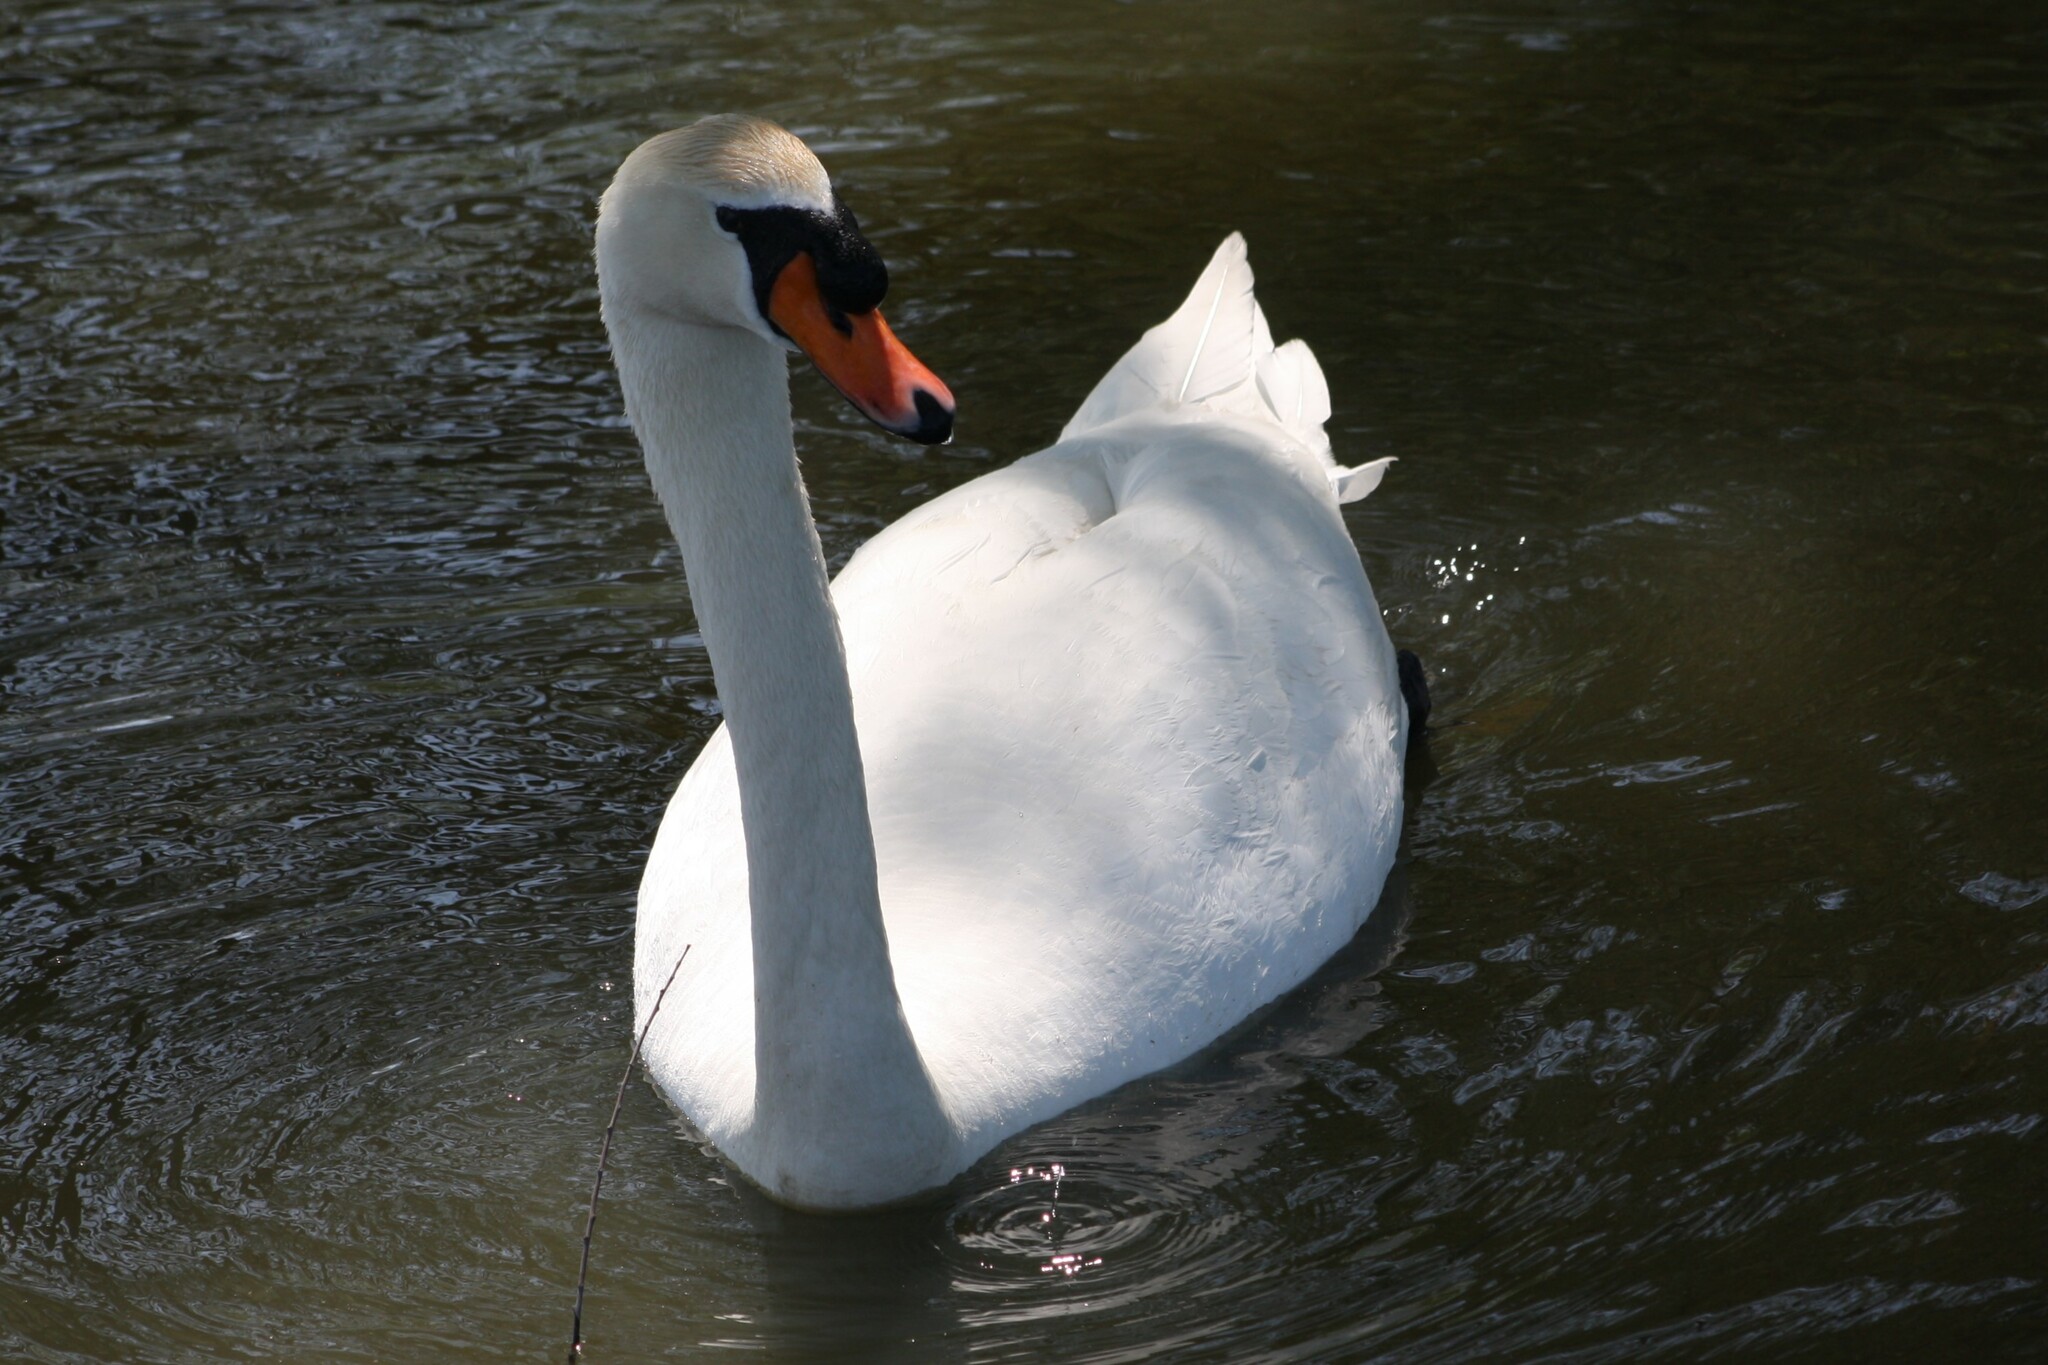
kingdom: Animalia
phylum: Chordata
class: Aves
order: Anseriformes
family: Anatidae
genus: Cygnus
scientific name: Cygnus olor
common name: Mute swan
